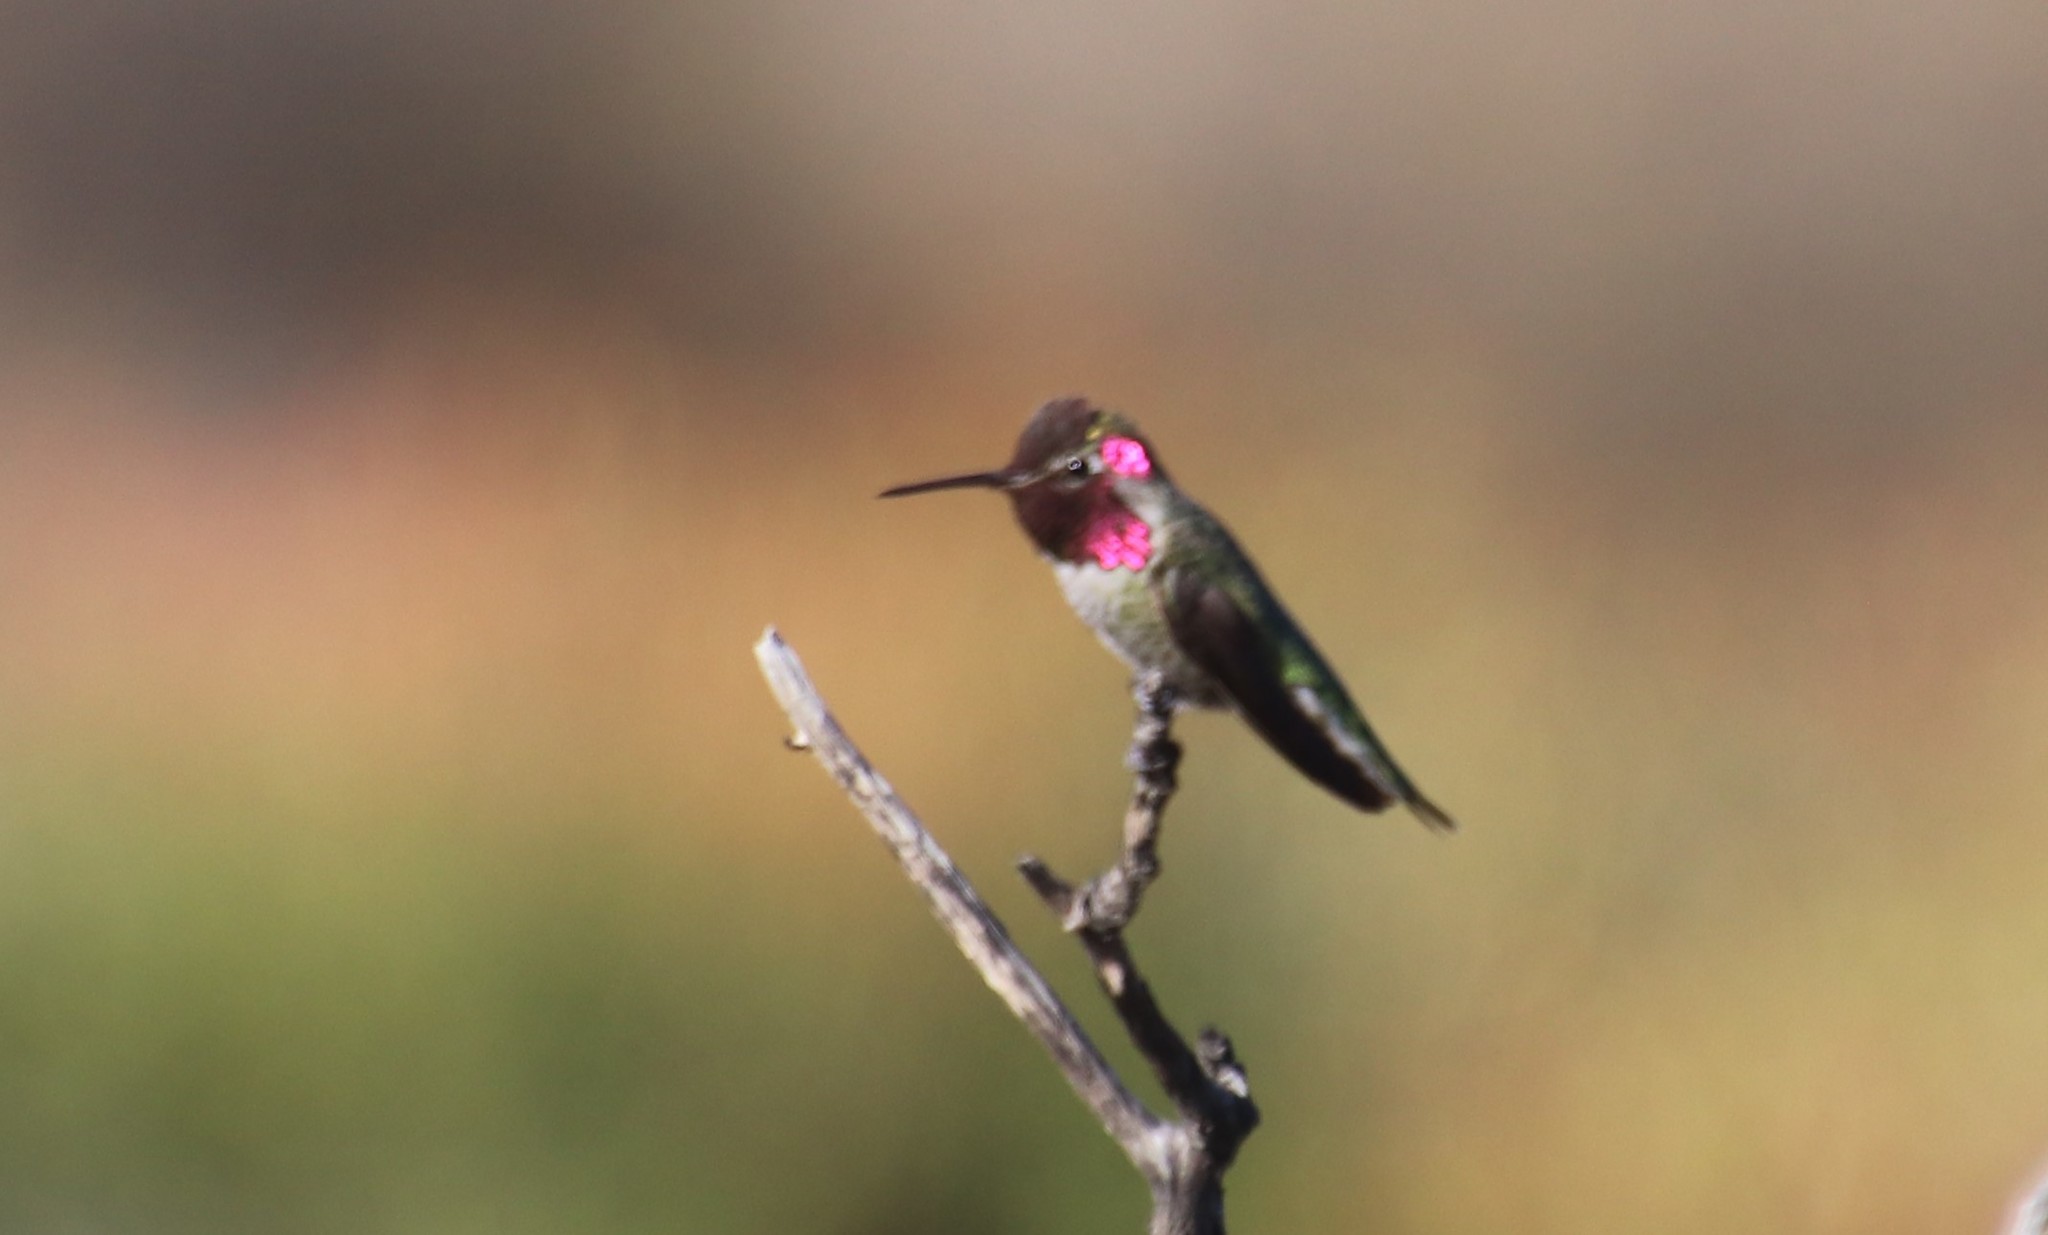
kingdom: Animalia
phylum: Chordata
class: Aves
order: Apodiformes
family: Trochilidae
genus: Calypte
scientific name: Calypte anna
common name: Anna's hummingbird
